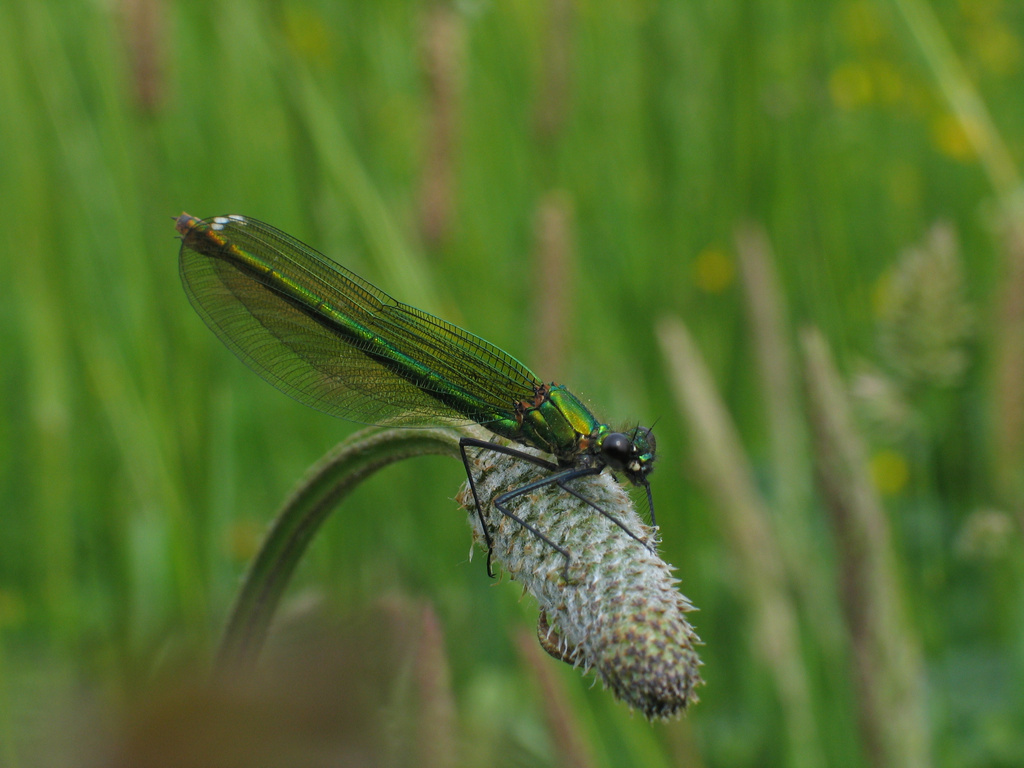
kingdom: Animalia
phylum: Arthropoda
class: Insecta
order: Odonata
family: Calopterygidae
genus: Calopteryx
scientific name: Calopteryx splendens
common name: Banded demoiselle
